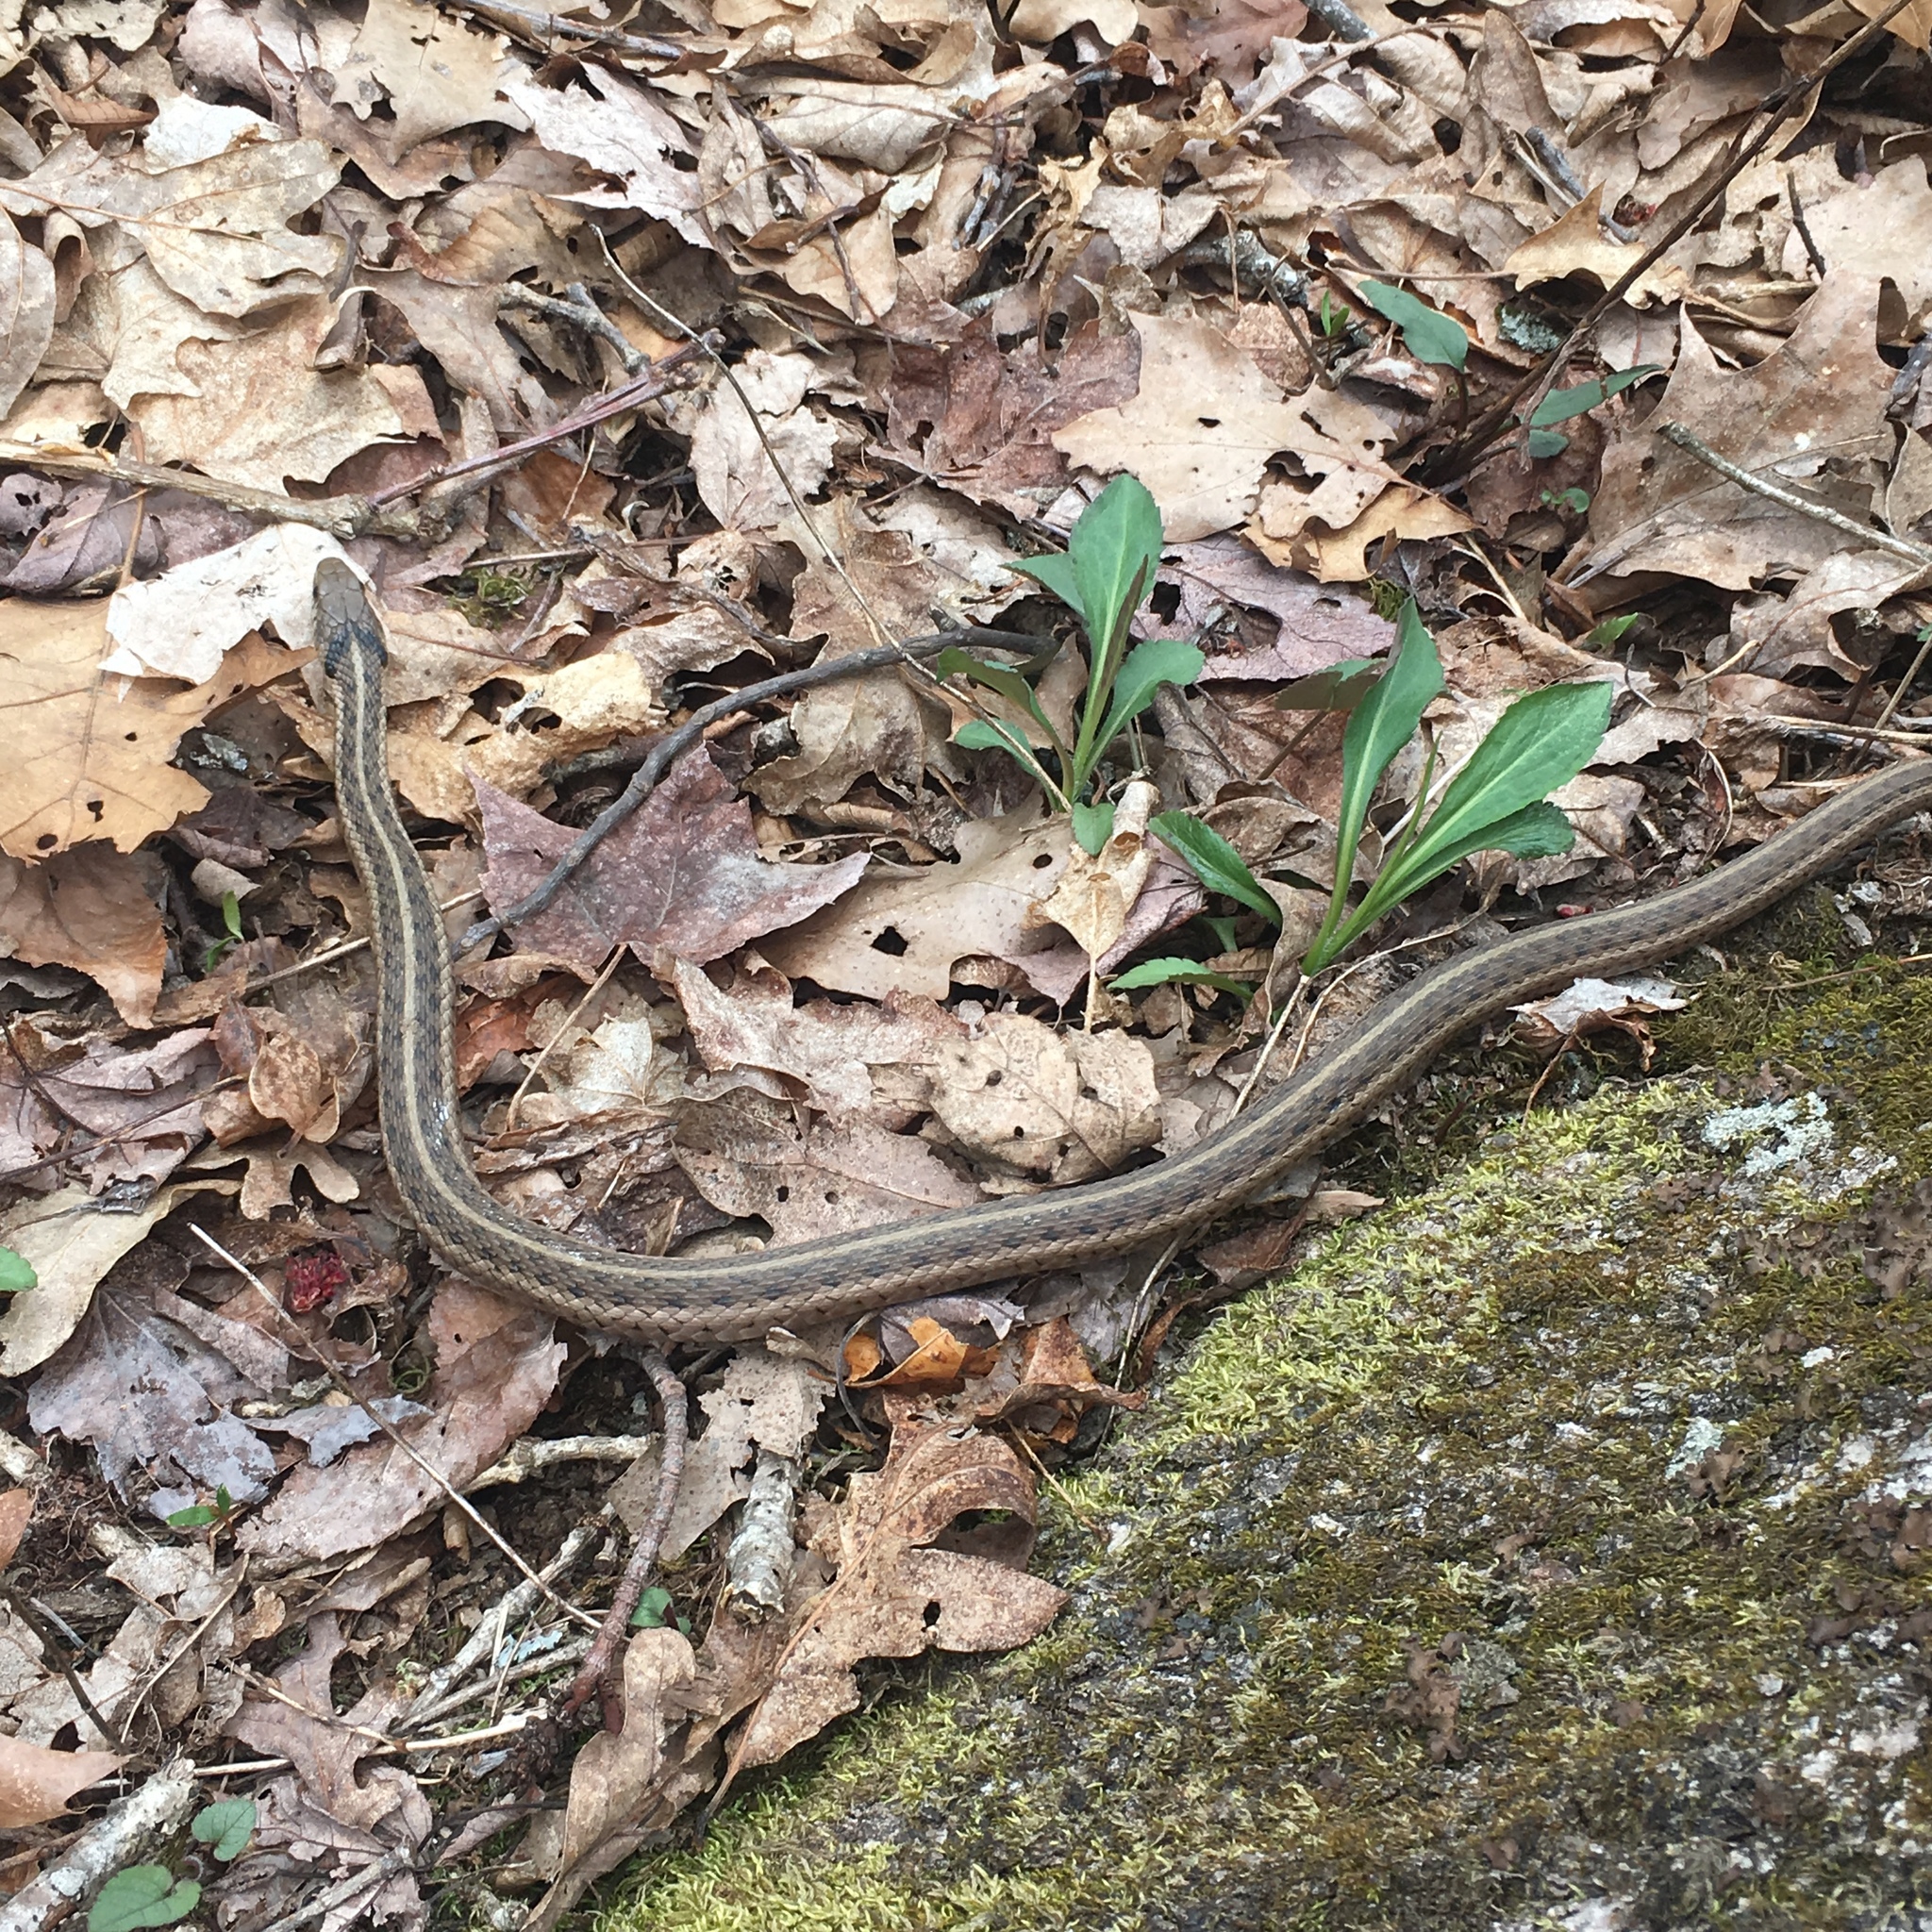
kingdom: Animalia
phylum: Chordata
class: Squamata
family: Colubridae
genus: Thamnophis
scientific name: Thamnophis sirtalis
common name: Common garter snake
